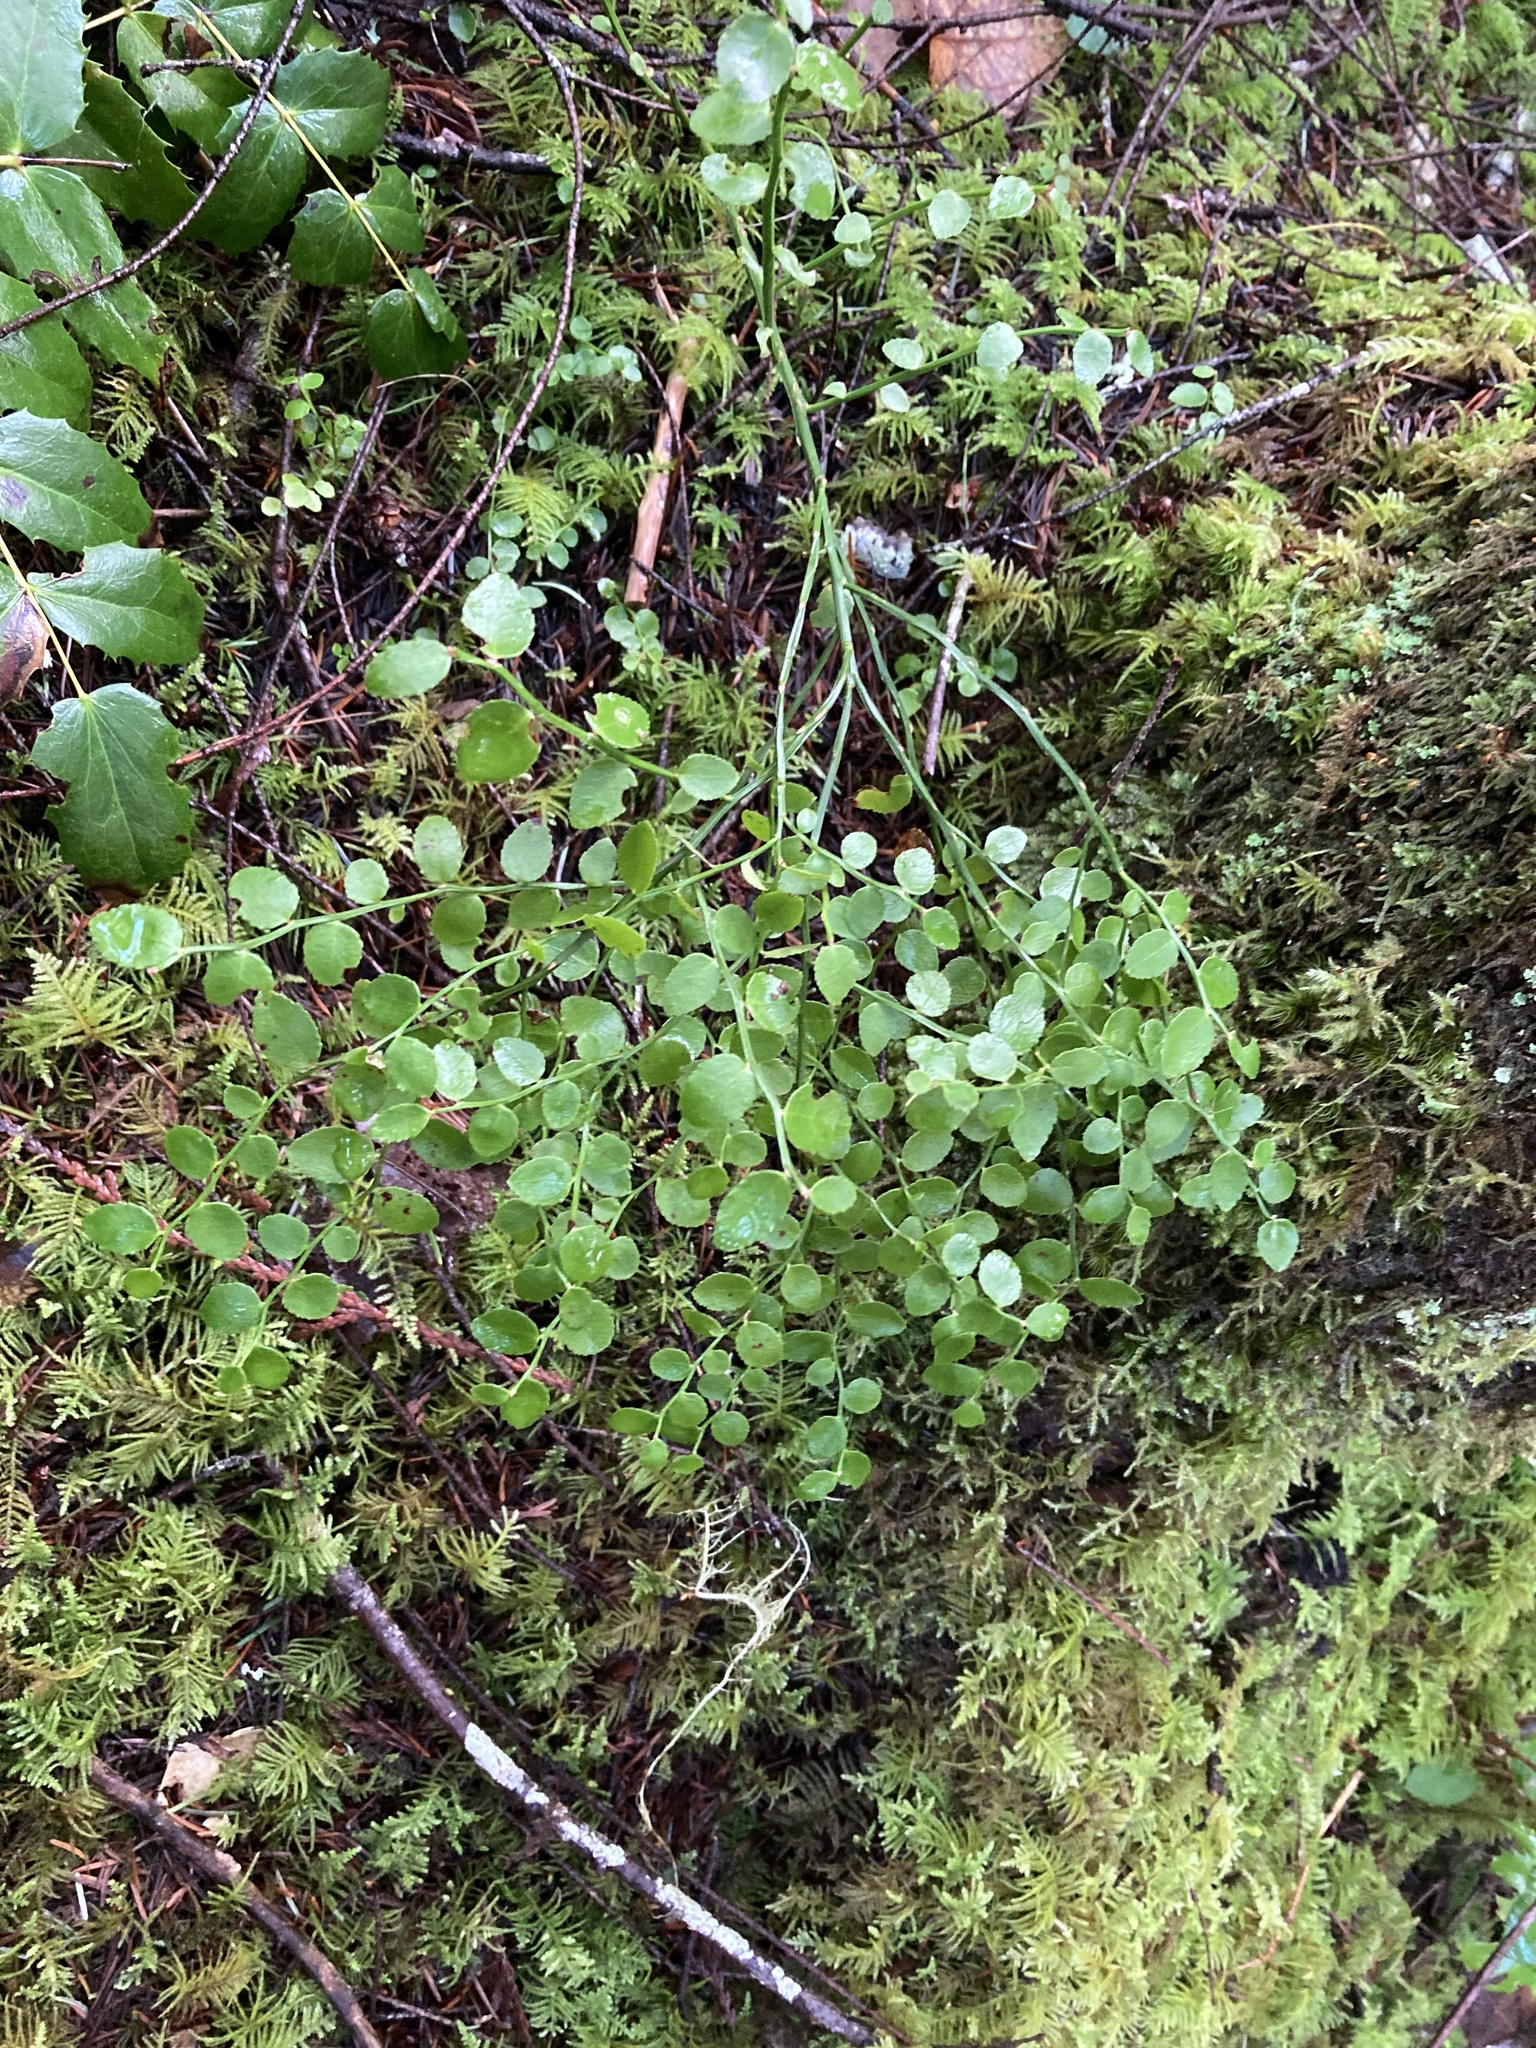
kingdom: Plantae
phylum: Tracheophyta
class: Magnoliopsida
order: Ericales
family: Ericaceae
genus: Vaccinium
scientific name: Vaccinium parvifolium
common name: Red-huckleberry
